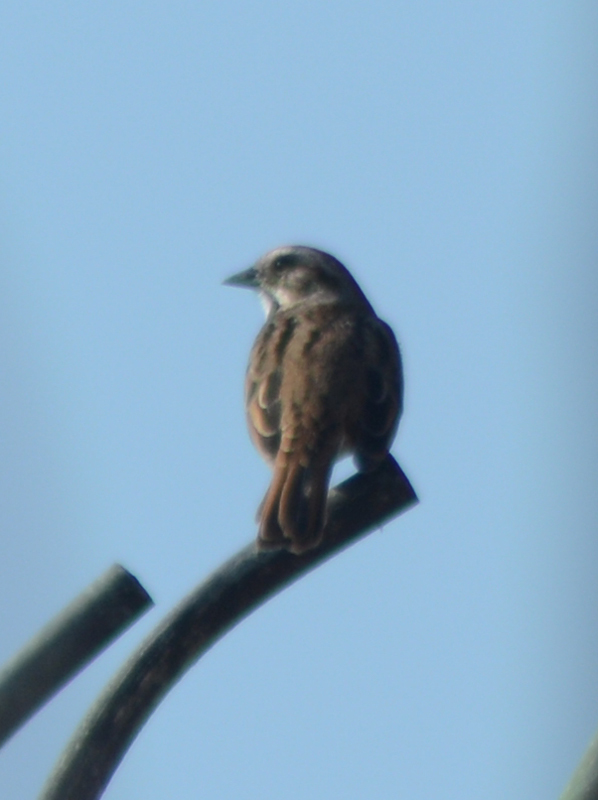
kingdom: Animalia
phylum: Chordata
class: Aves
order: Passeriformes
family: Passerellidae
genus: Melospiza
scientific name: Melospiza melodia
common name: Song sparrow
